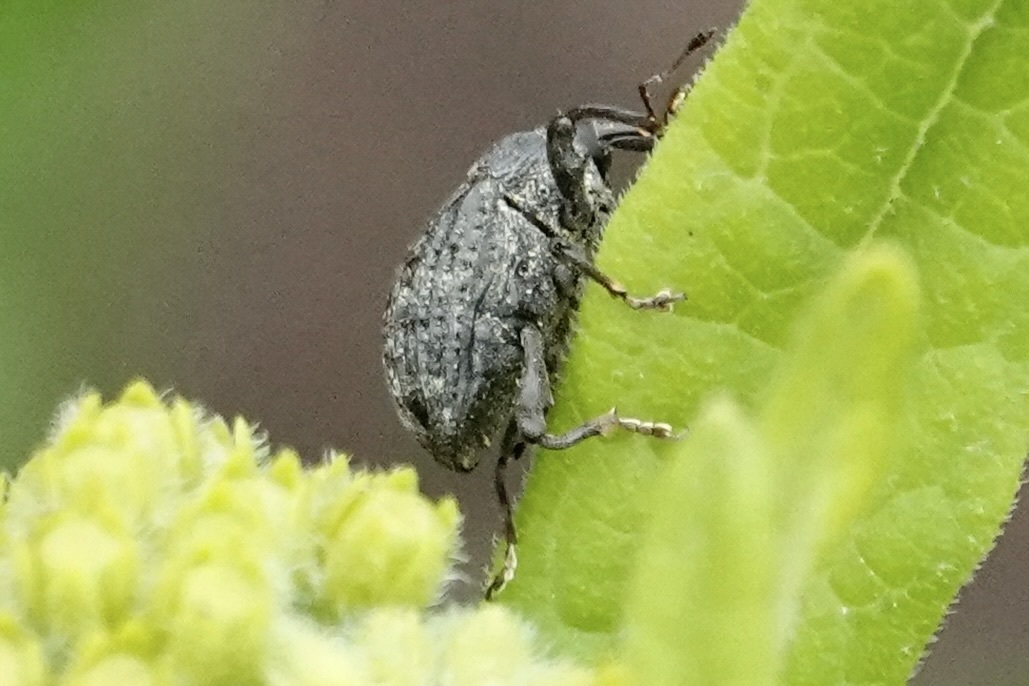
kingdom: Animalia
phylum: Arthropoda
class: Insecta
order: Coleoptera
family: Curculionidae
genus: Rhyssomatus
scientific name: Rhyssomatus lineaticollis
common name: Milkweed stem weevil
